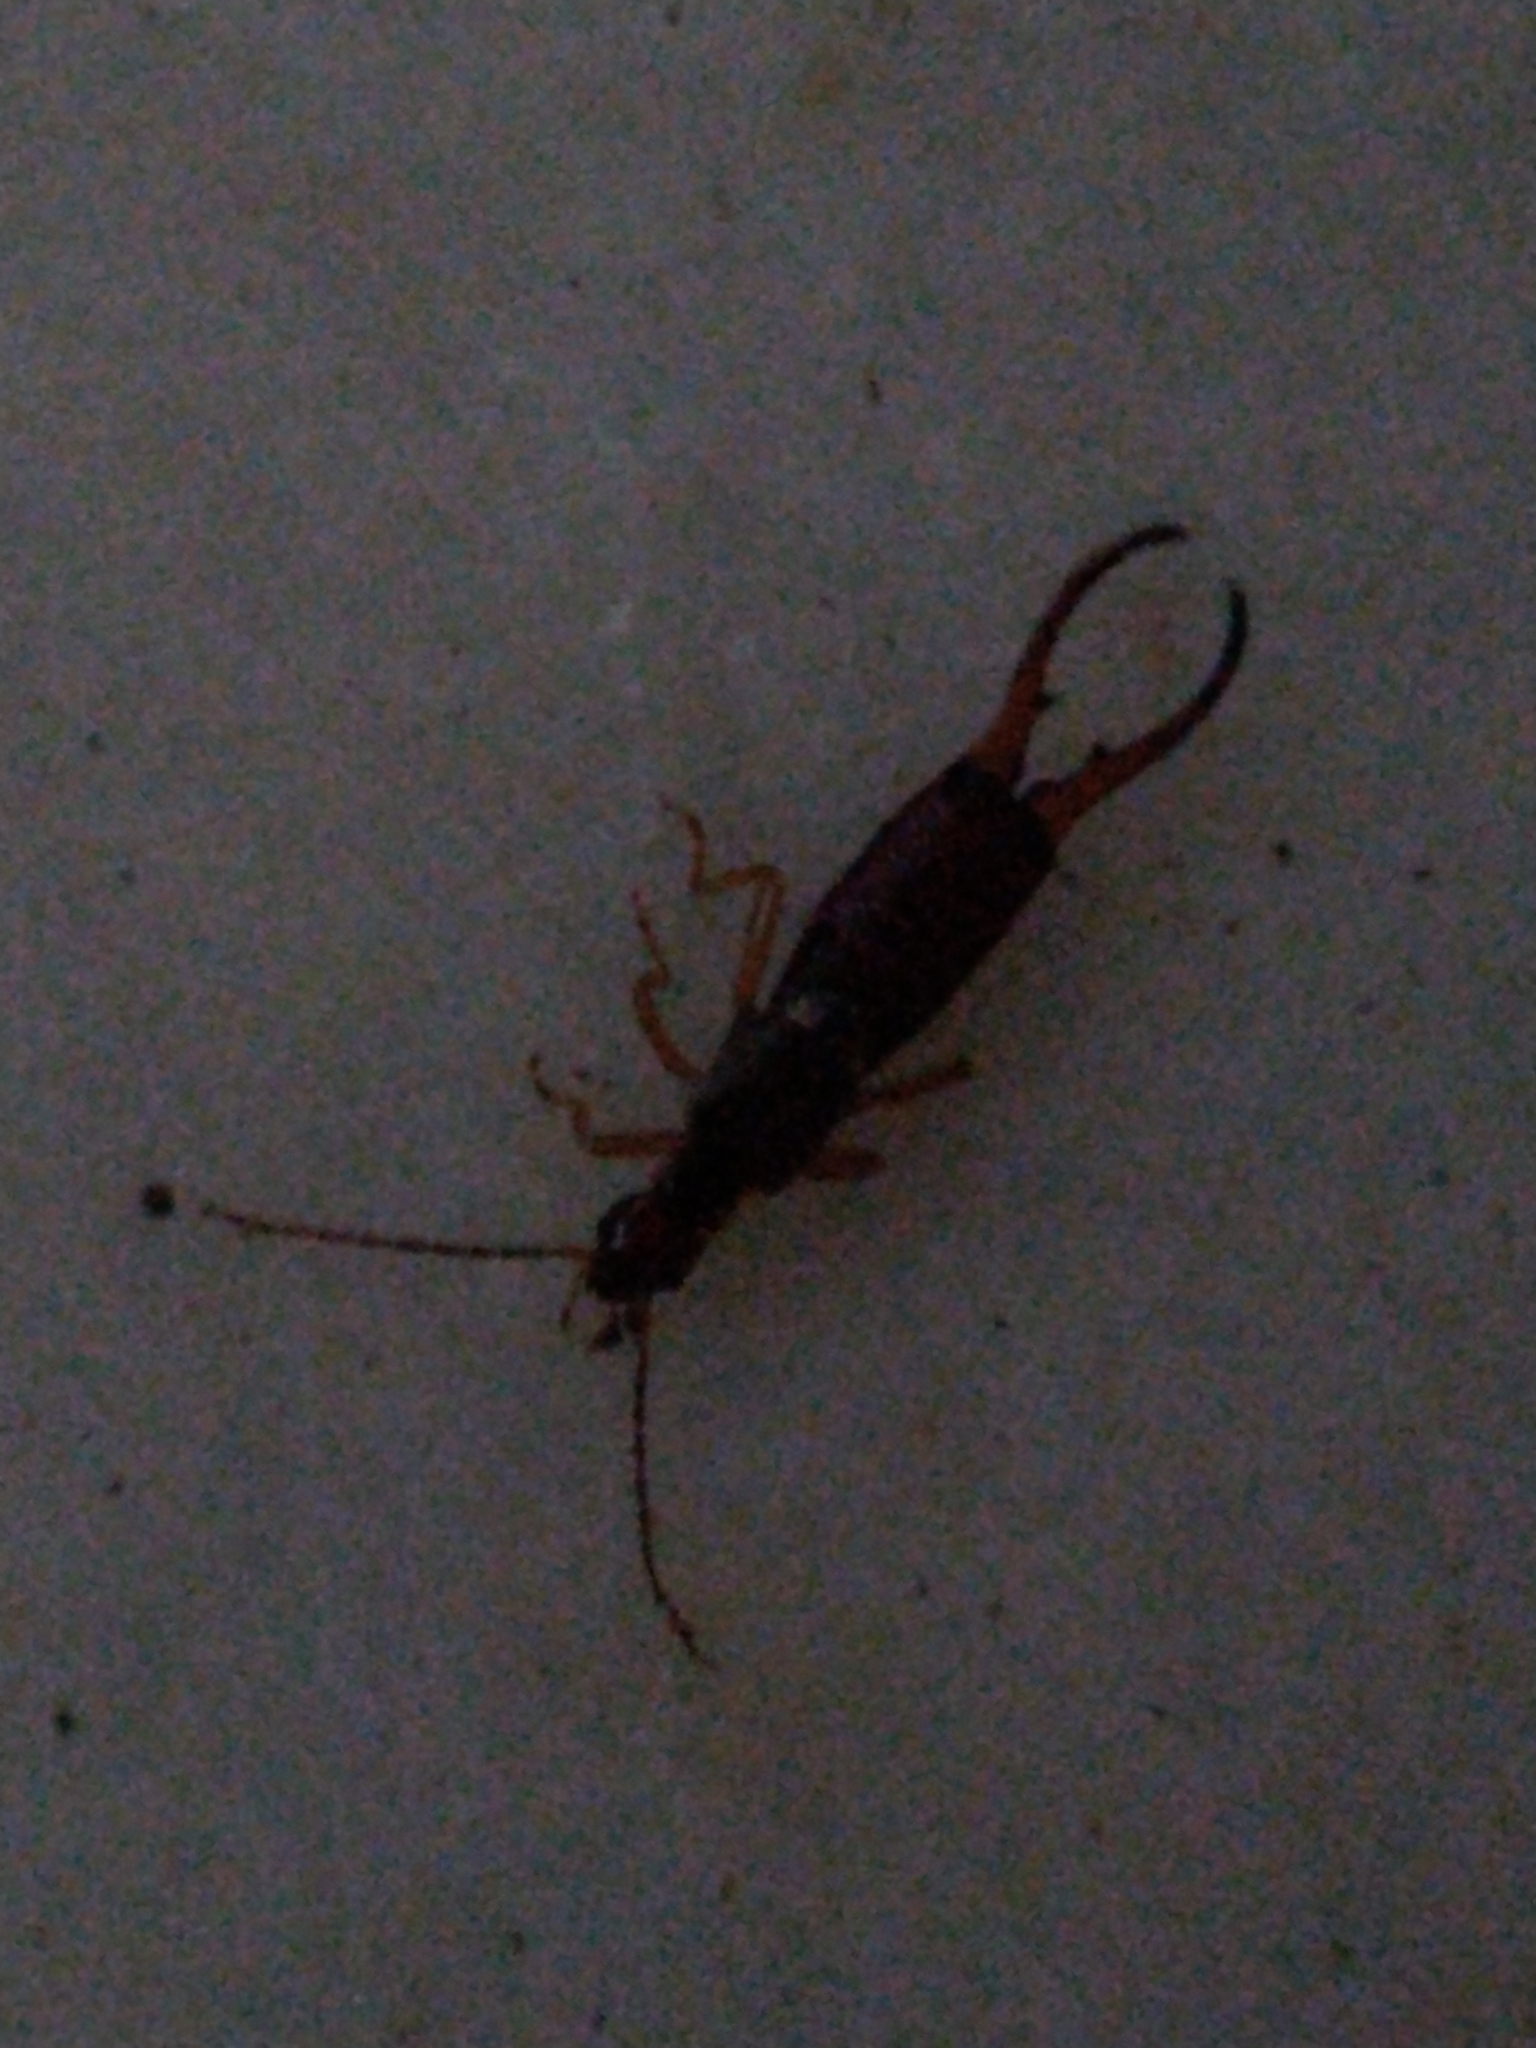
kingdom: Animalia
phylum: Arthropoda
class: Insecta
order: Dermaptera
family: Forficulidae
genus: Forficula
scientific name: Forficula
